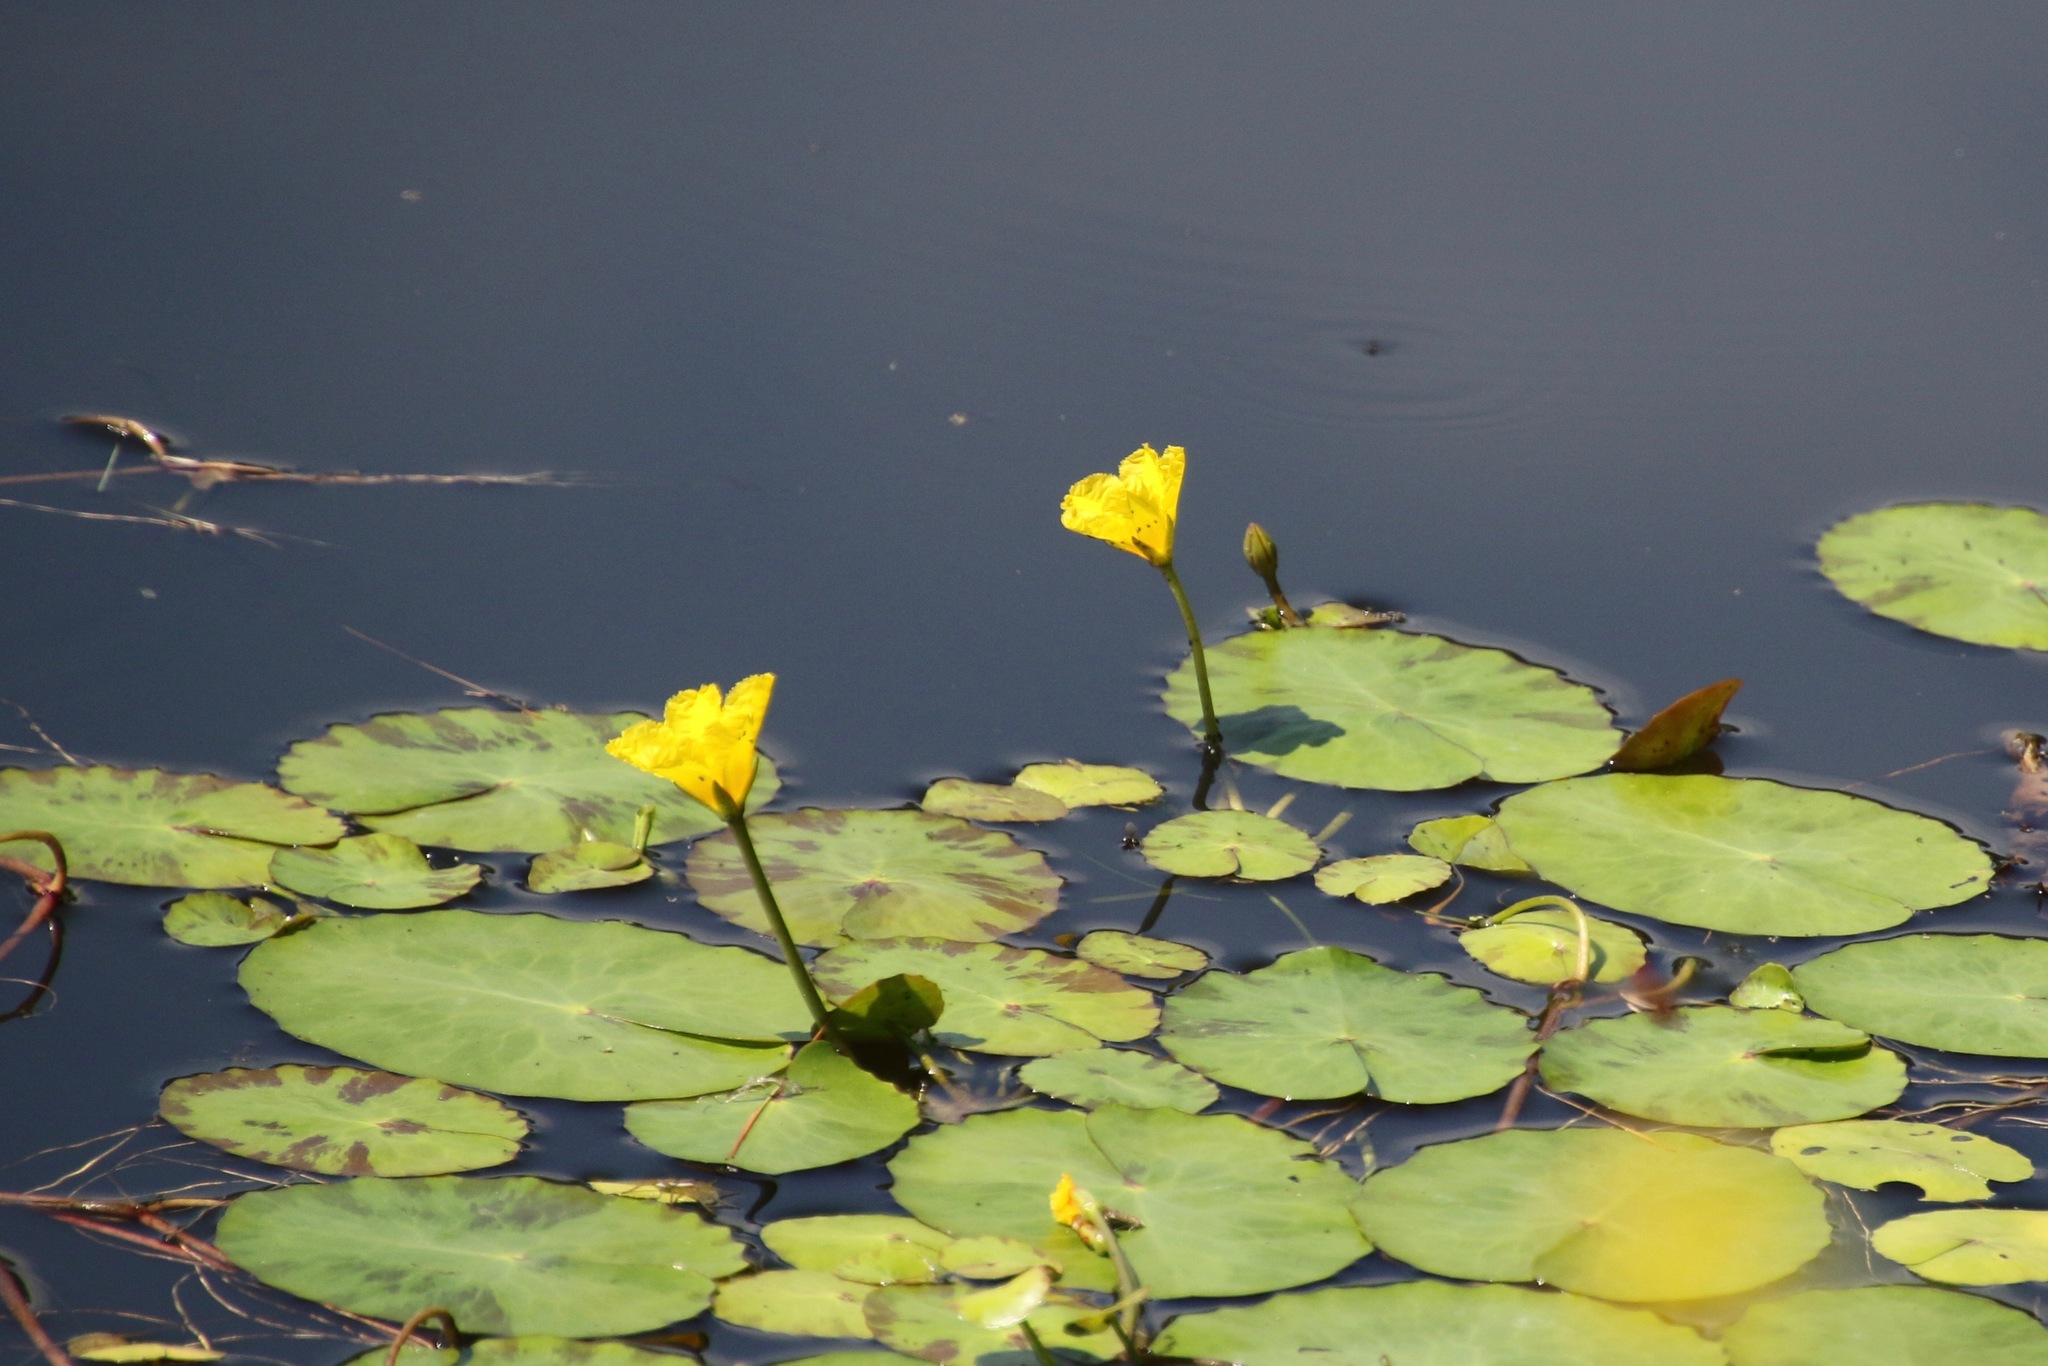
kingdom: Plantae
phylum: Tracheophyta
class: Magnoliopsida
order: Asterales
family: Menyanthaceae
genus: Nymphoides
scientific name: Nymphoides peltata
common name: Fringed water-lily
